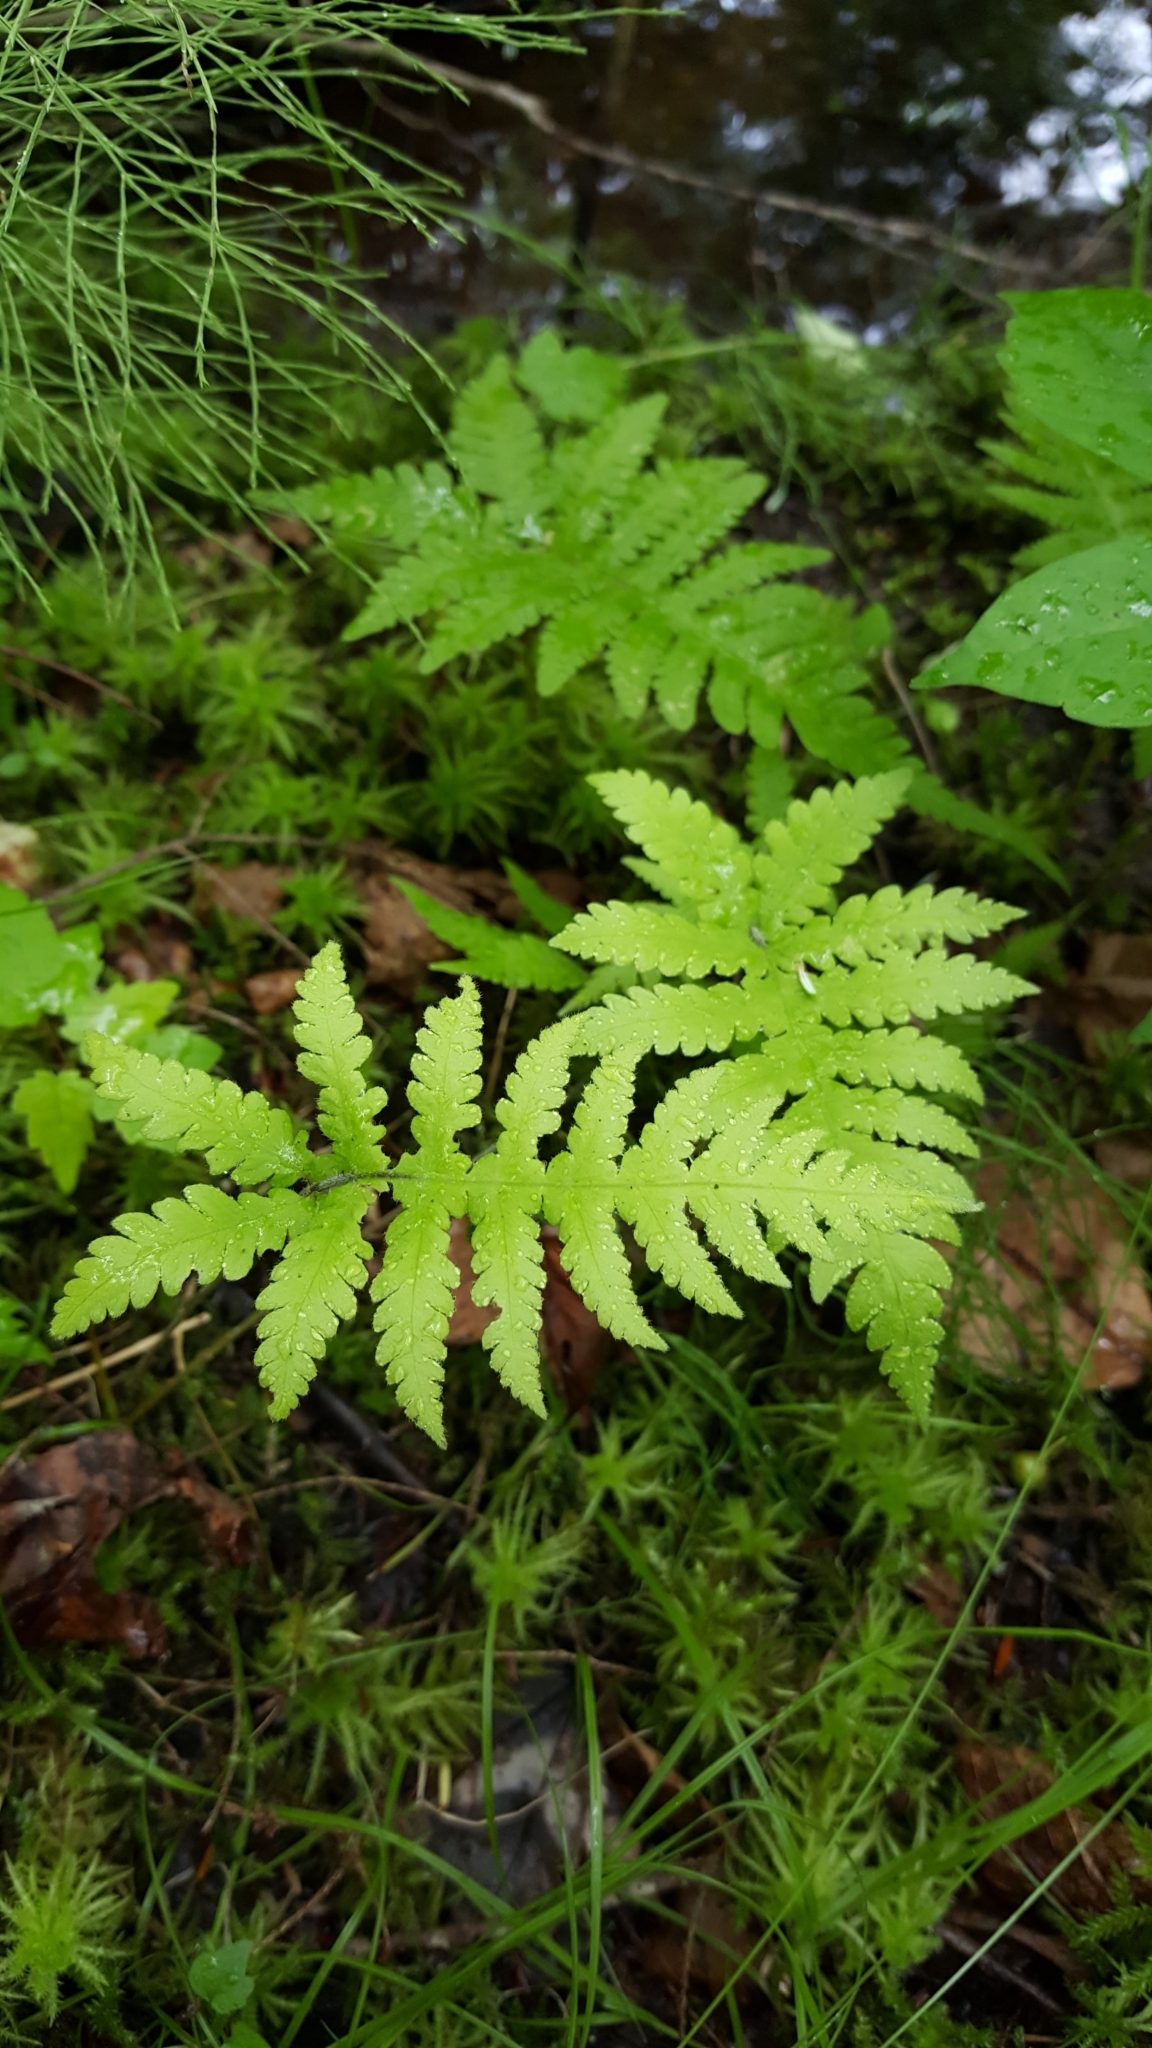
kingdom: Plantae
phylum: Tracheophyta
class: Polypodiopsida
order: Polypodiales
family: Thelypteridaceae
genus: Phegopteris
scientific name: Phegopteris connectilis
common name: Beech fern
